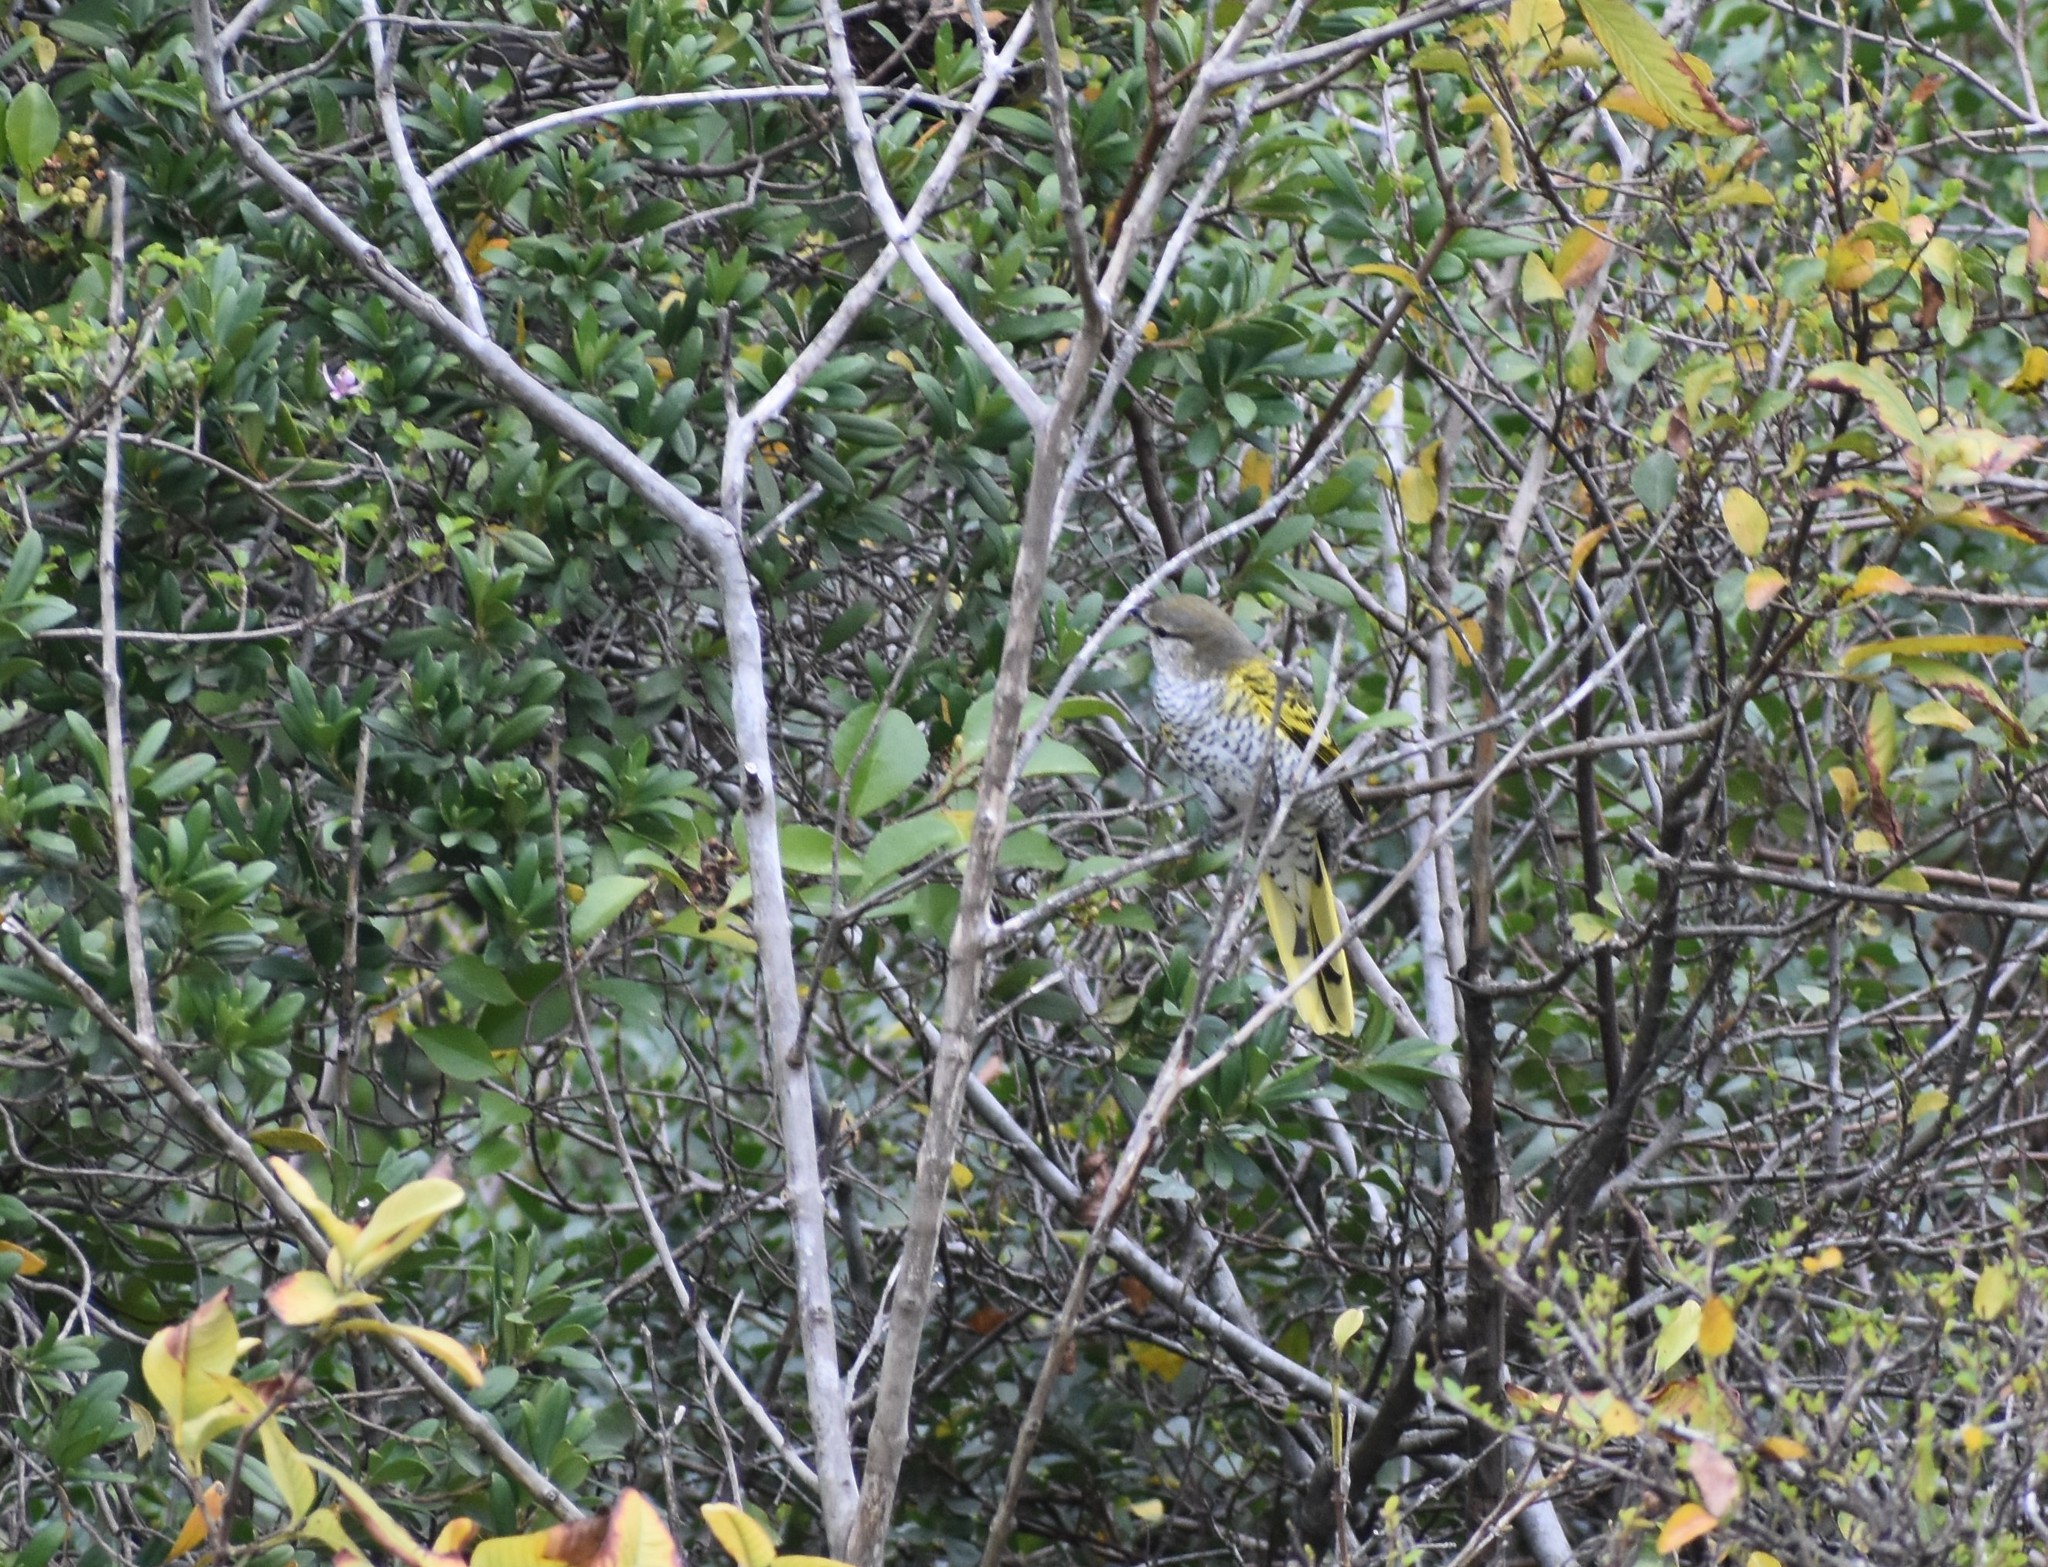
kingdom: Animalia
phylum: Chordata
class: Aves
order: Passeriformes
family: Campephagidae
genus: Campephaga
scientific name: Campephaga flava
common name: Black cuckooshrike
